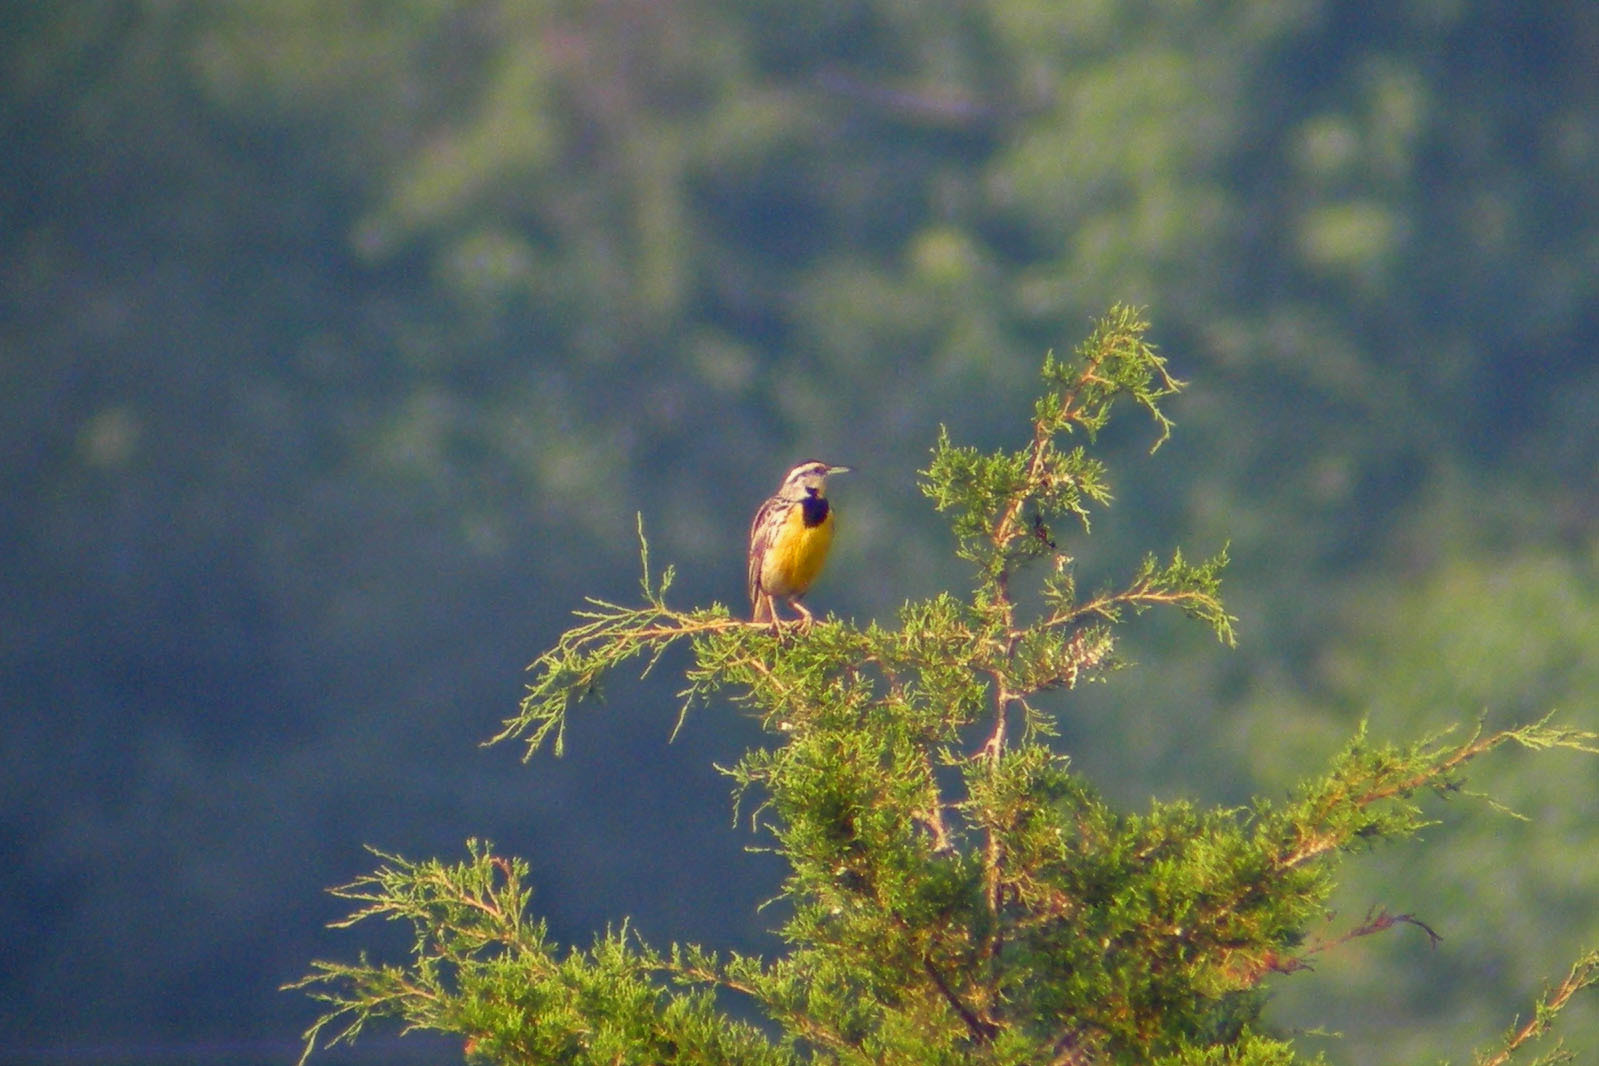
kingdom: Animalia
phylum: Chordata
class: Aves
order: Passeriformes
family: Icteridae
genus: Sturnella
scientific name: Sturnella magna
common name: Eastern meadowlark
